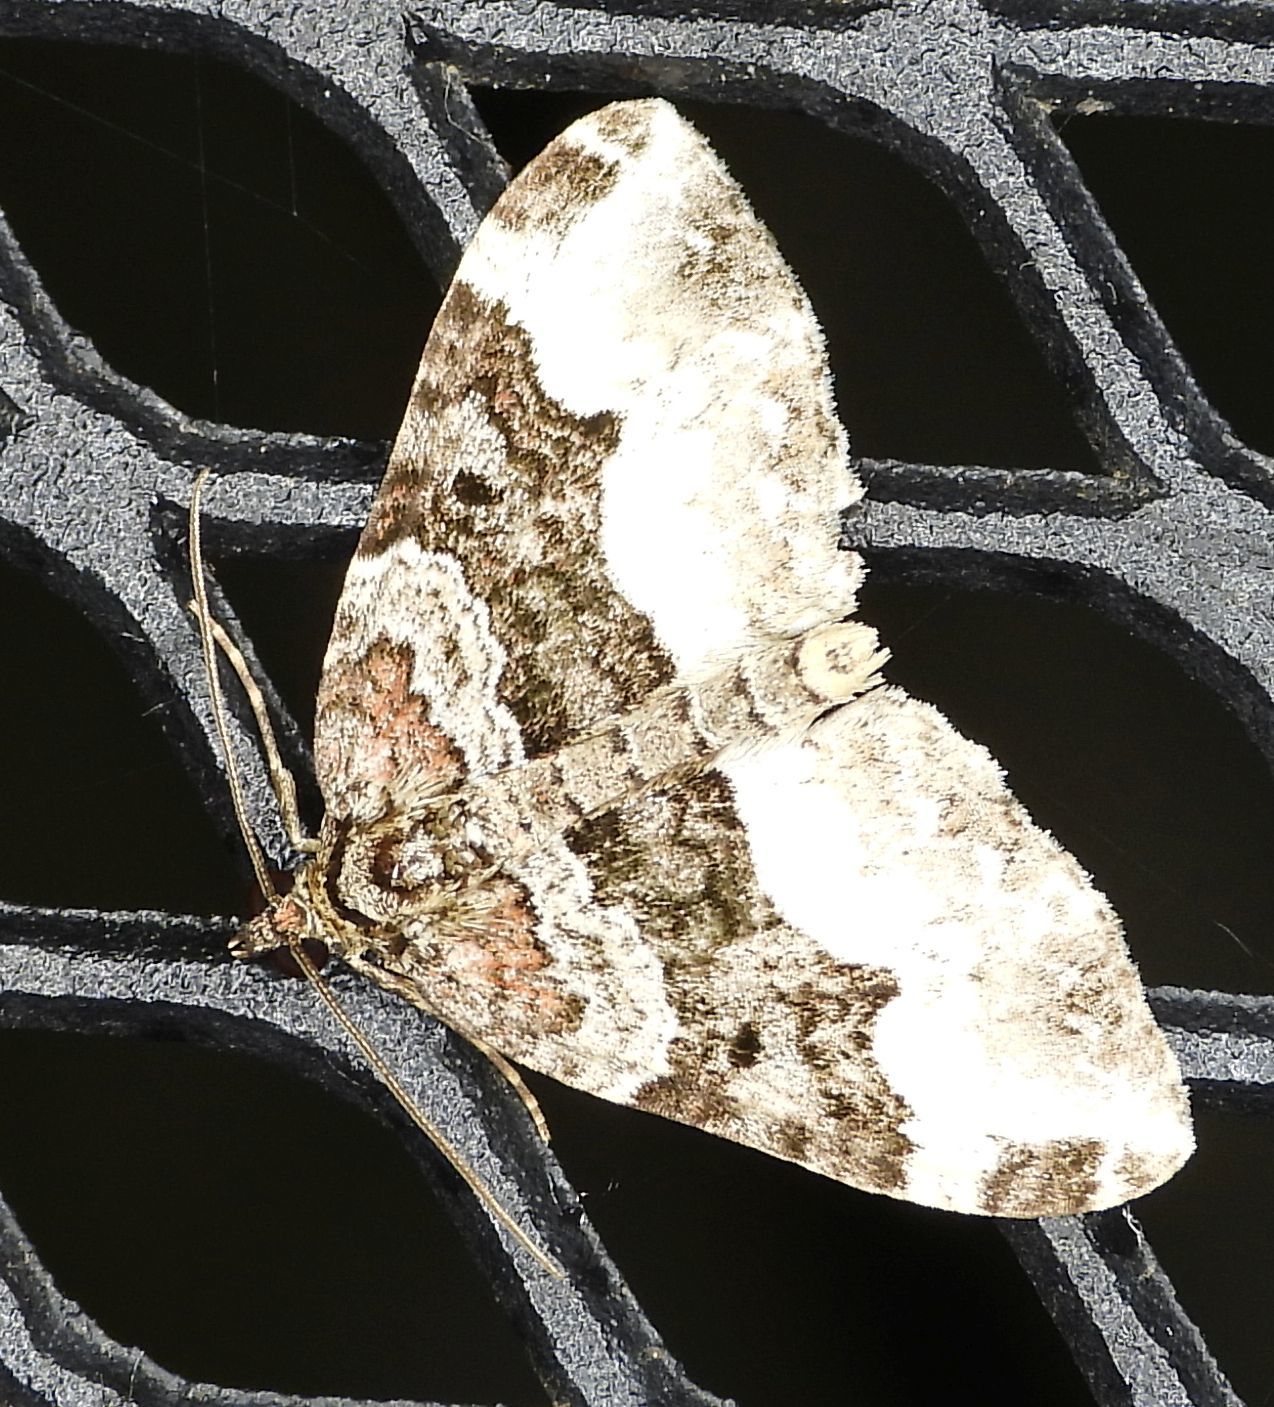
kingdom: Animalia
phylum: Arthropoda
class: Insecta
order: Lepidoptera
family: Geometridae
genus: Euphyia
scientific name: Euphyia intermediata
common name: Sharp-angled carpet
